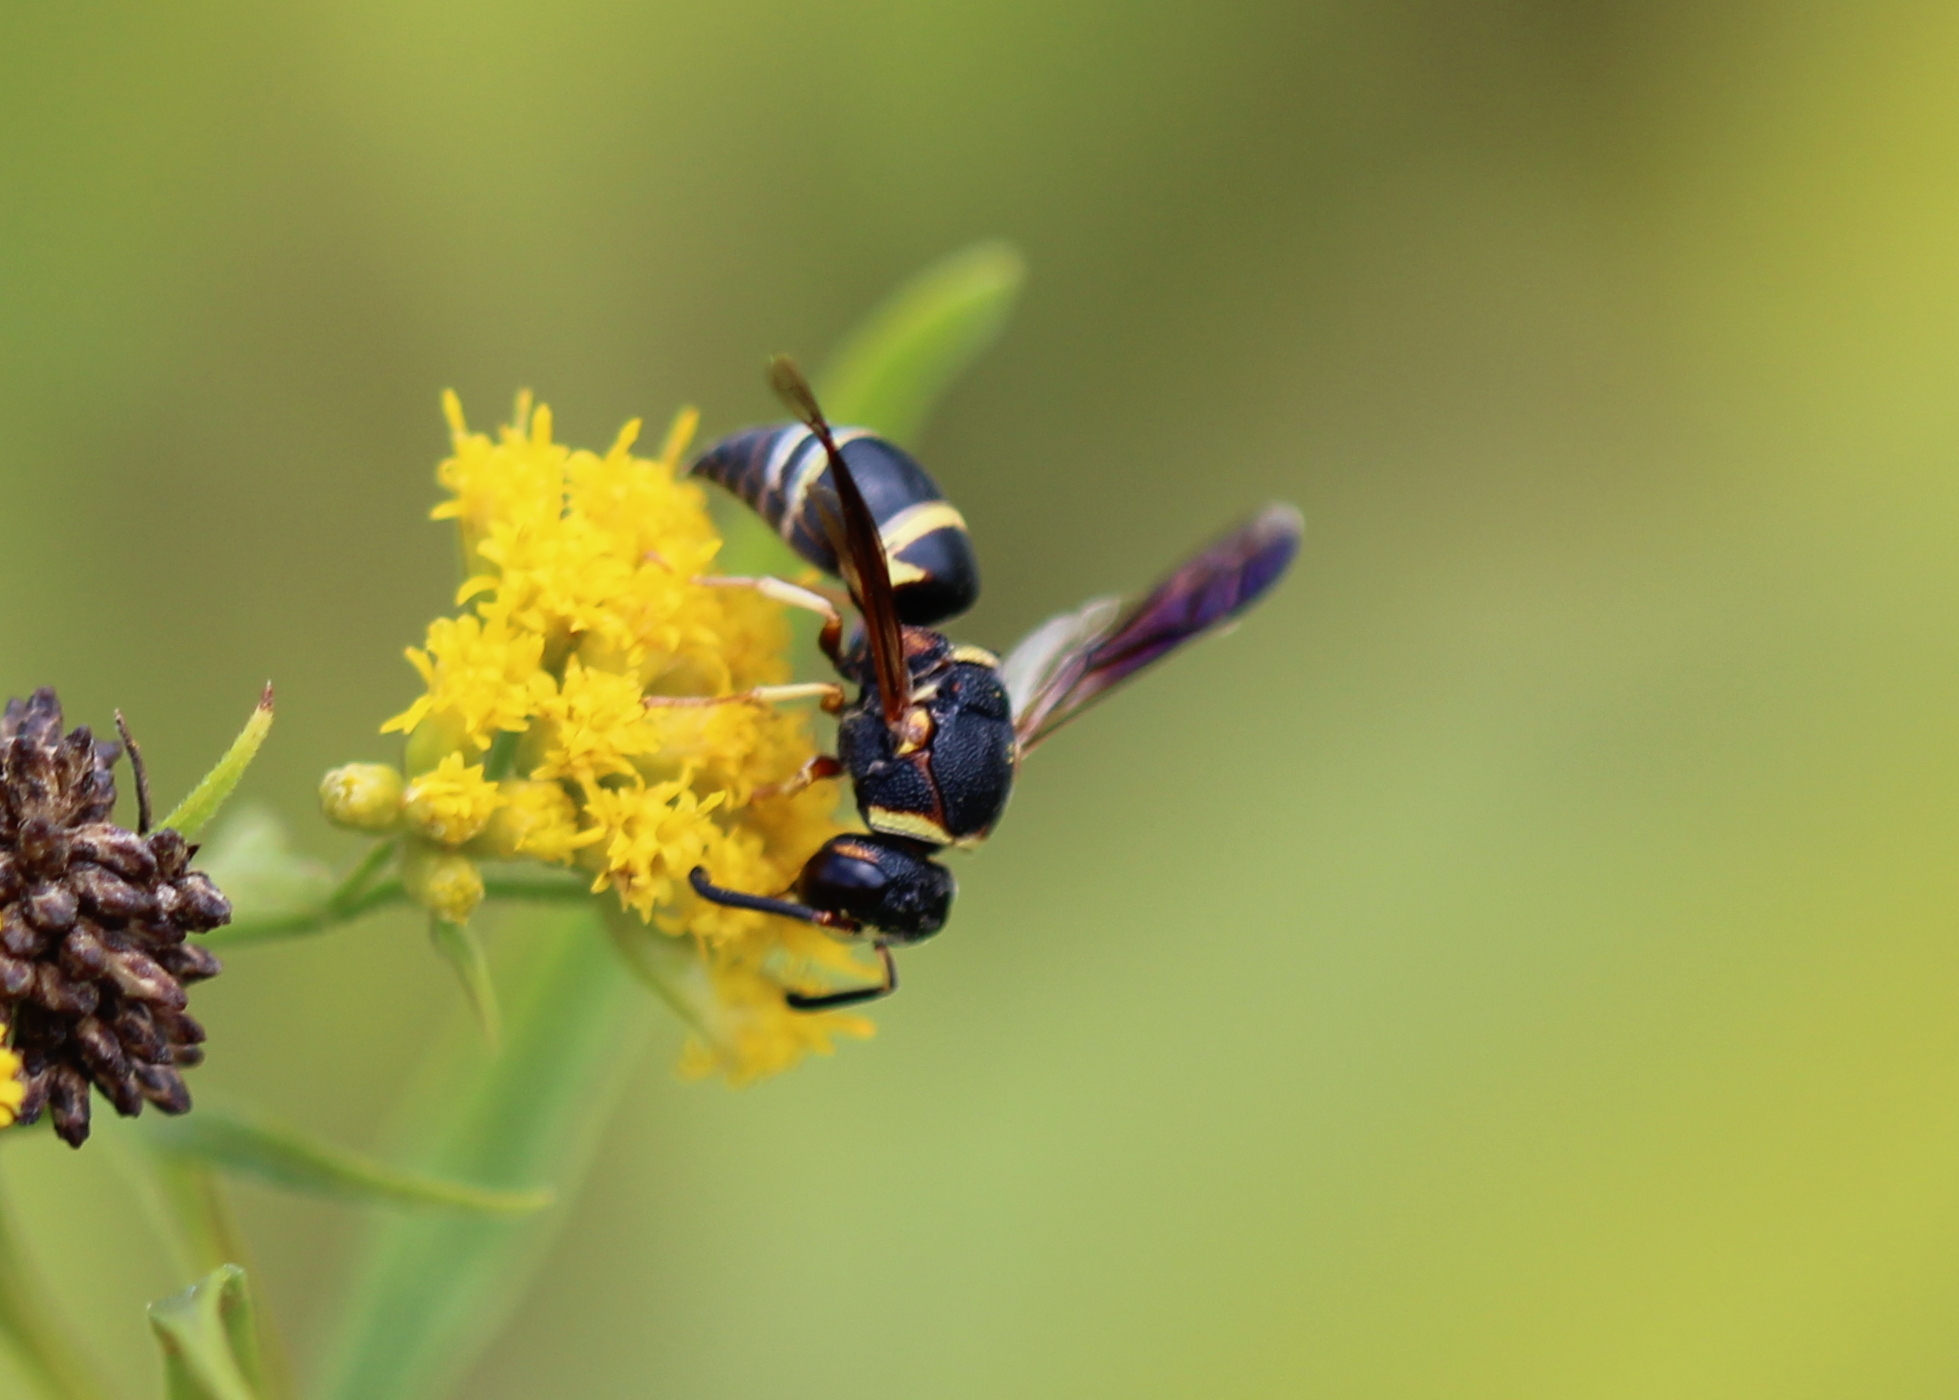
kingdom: Animalia
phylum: Arthropoda
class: Insecta
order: Hymenoptera
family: Eumenidae
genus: Euodynerus
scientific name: Euodynerus hidalgo
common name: Wasp
